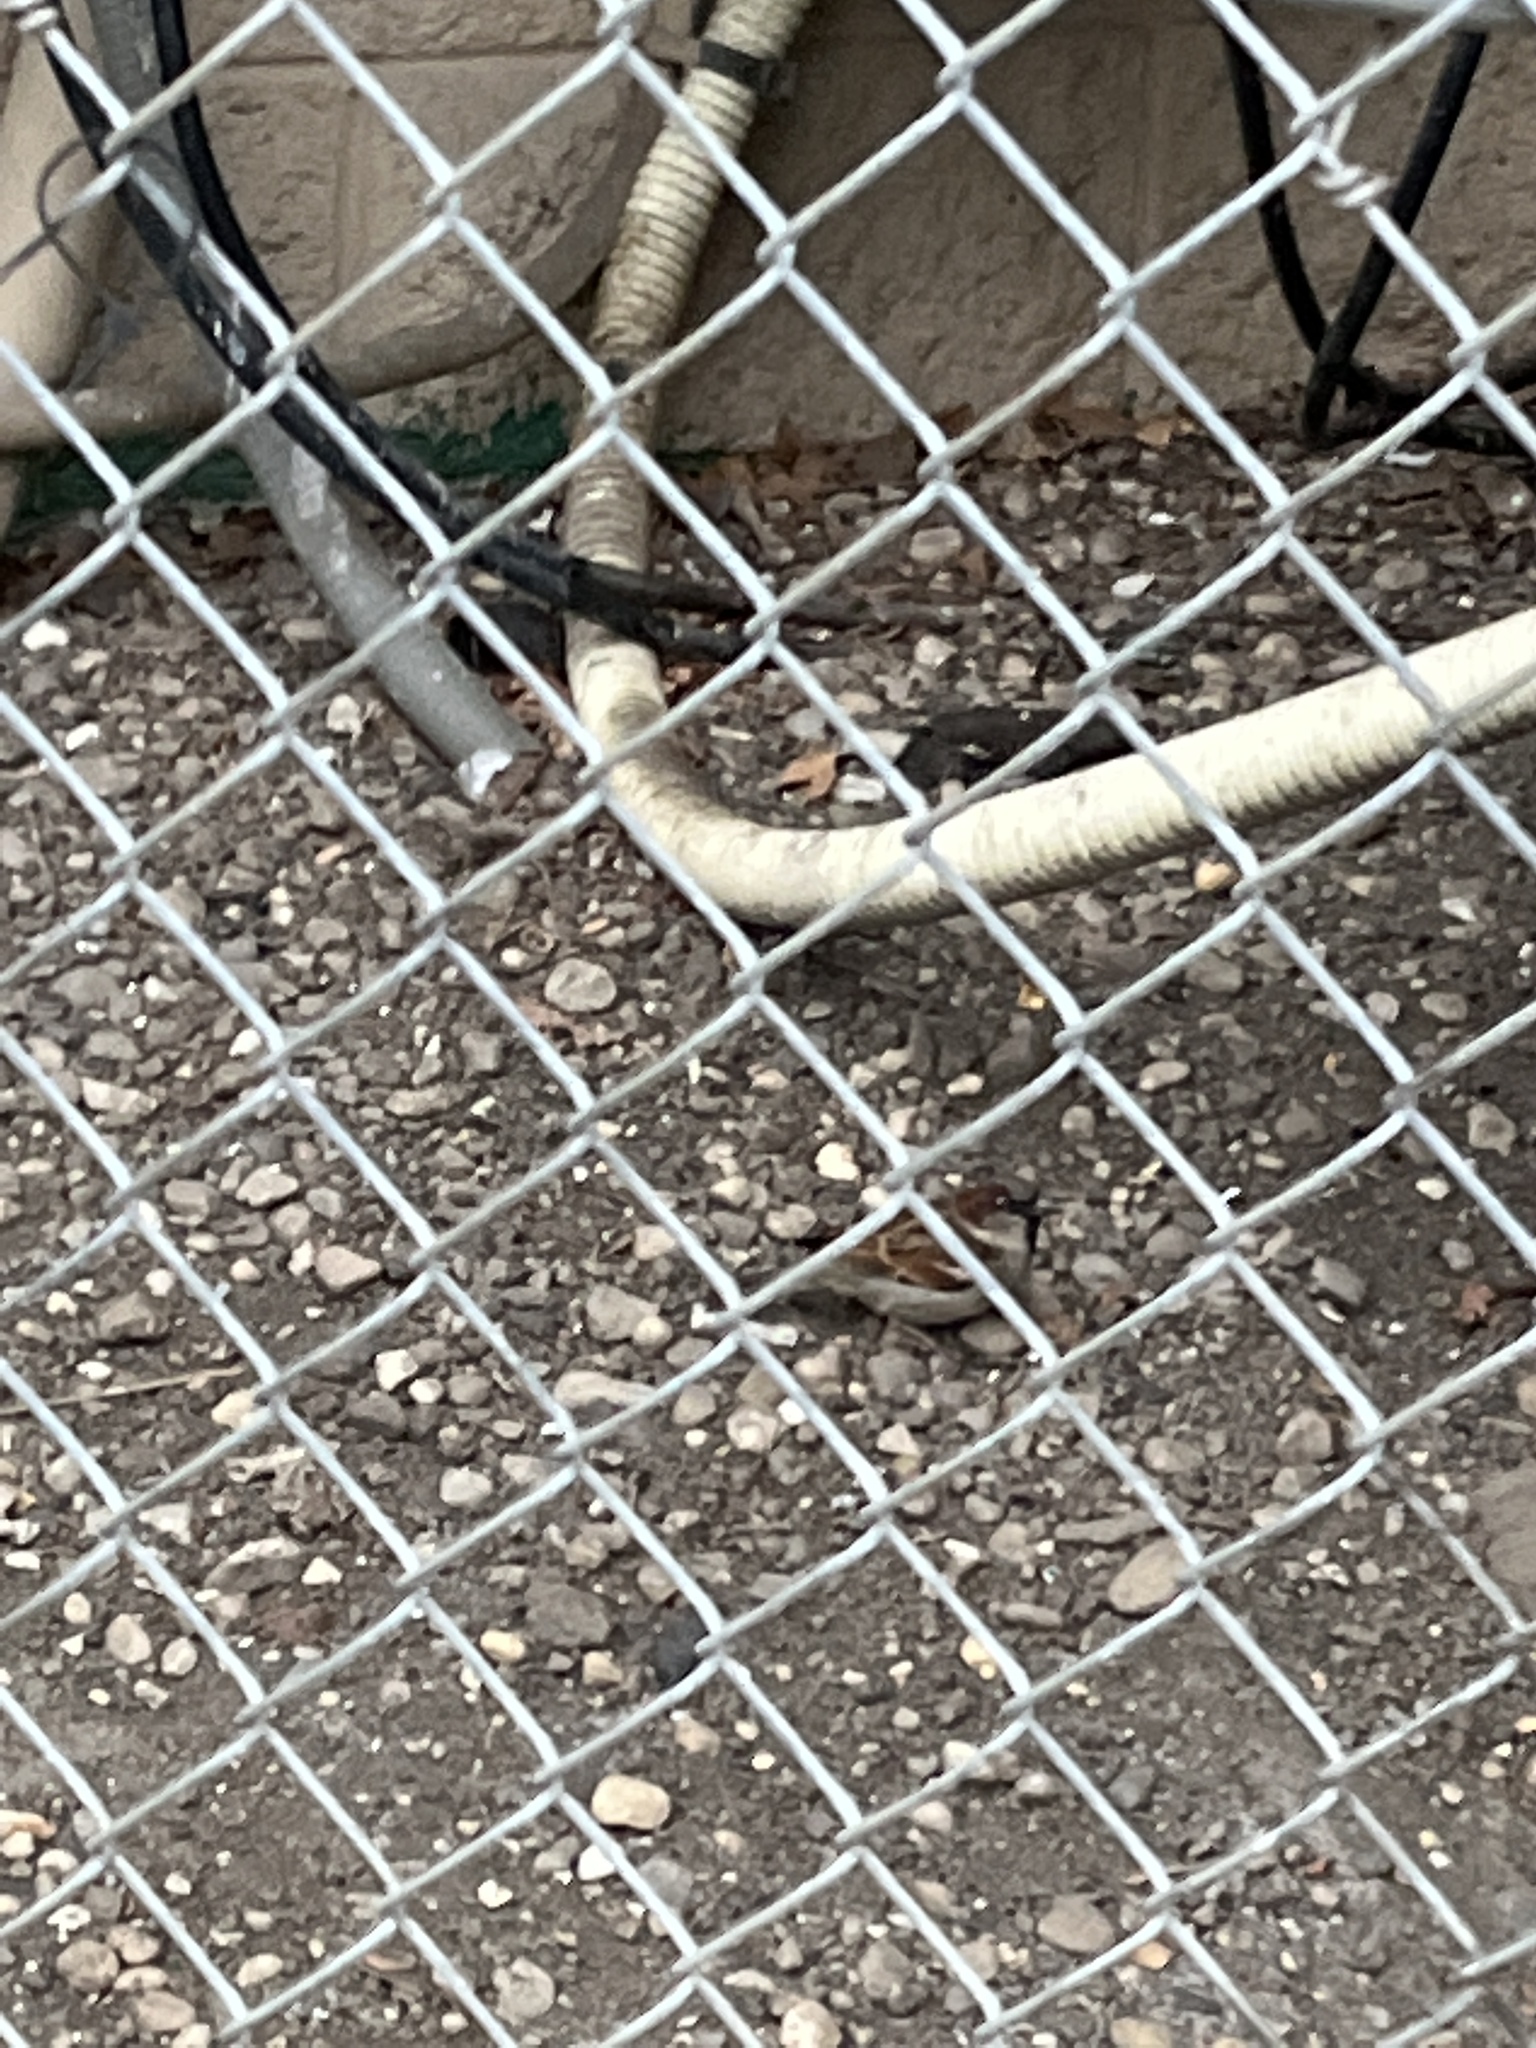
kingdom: Animalia
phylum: Chordata
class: Aves
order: Passeriformes
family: Passeridae
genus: Passer
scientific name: Passer domesticus
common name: House sparrow
